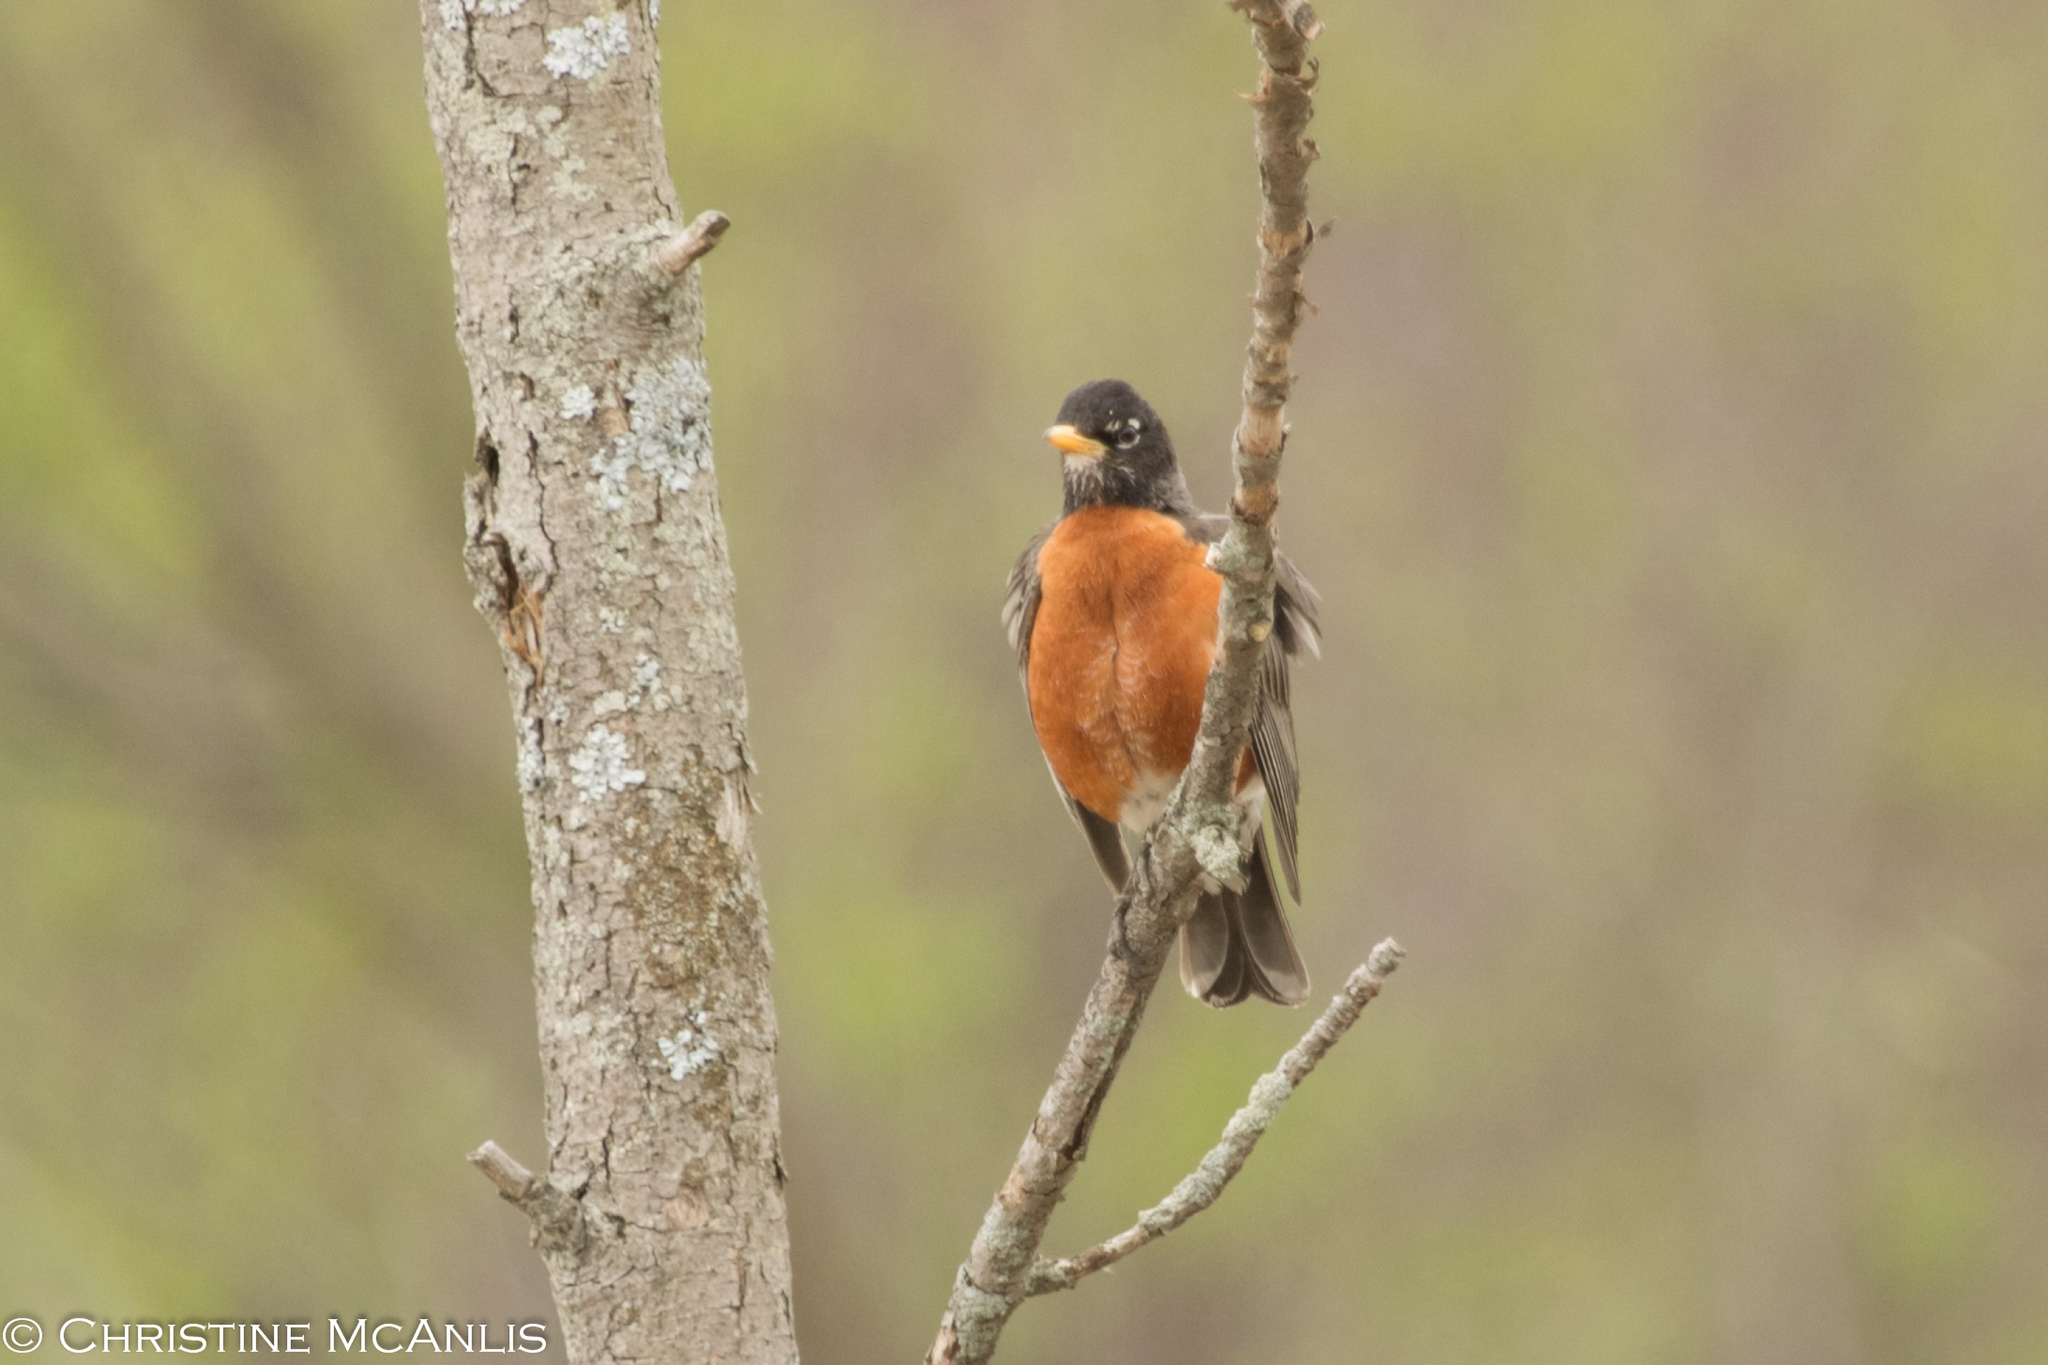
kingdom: Animalia
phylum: Chordata
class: Aves
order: Passeriformes
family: Turdidae
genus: Turdus
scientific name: Turdus migratorius
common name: American robin
